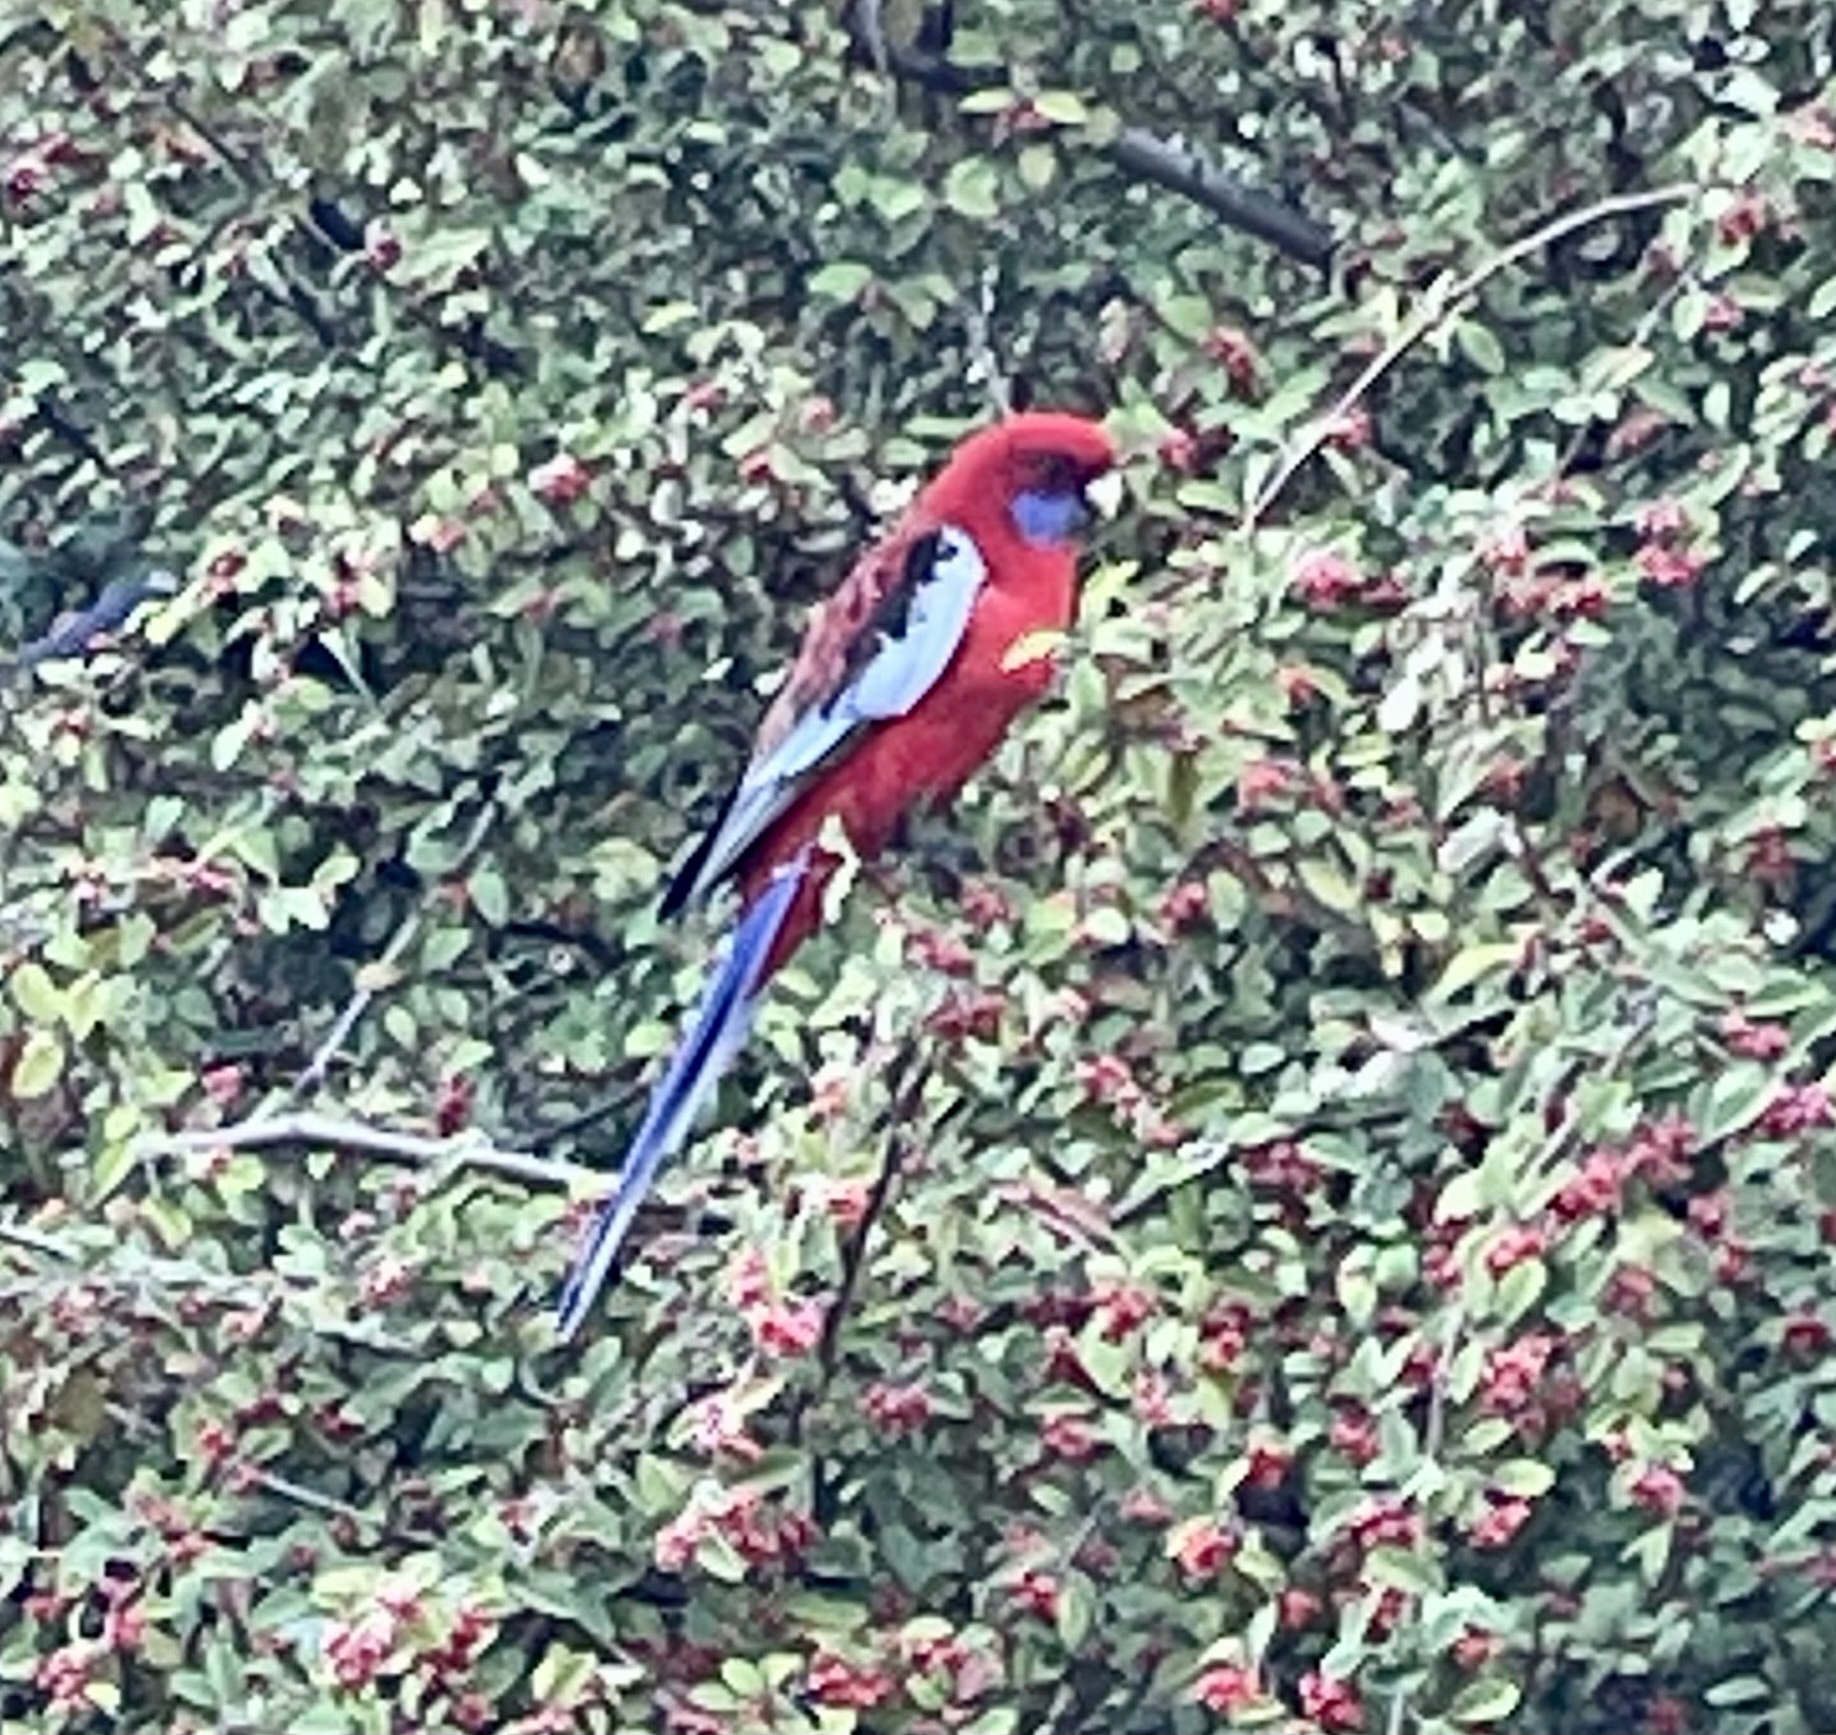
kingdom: Animalia
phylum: Chordata
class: Aves
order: Psittaciformes
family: Psittacidae
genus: Platycercus
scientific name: Platycercus elegans
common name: Crimson rosella
